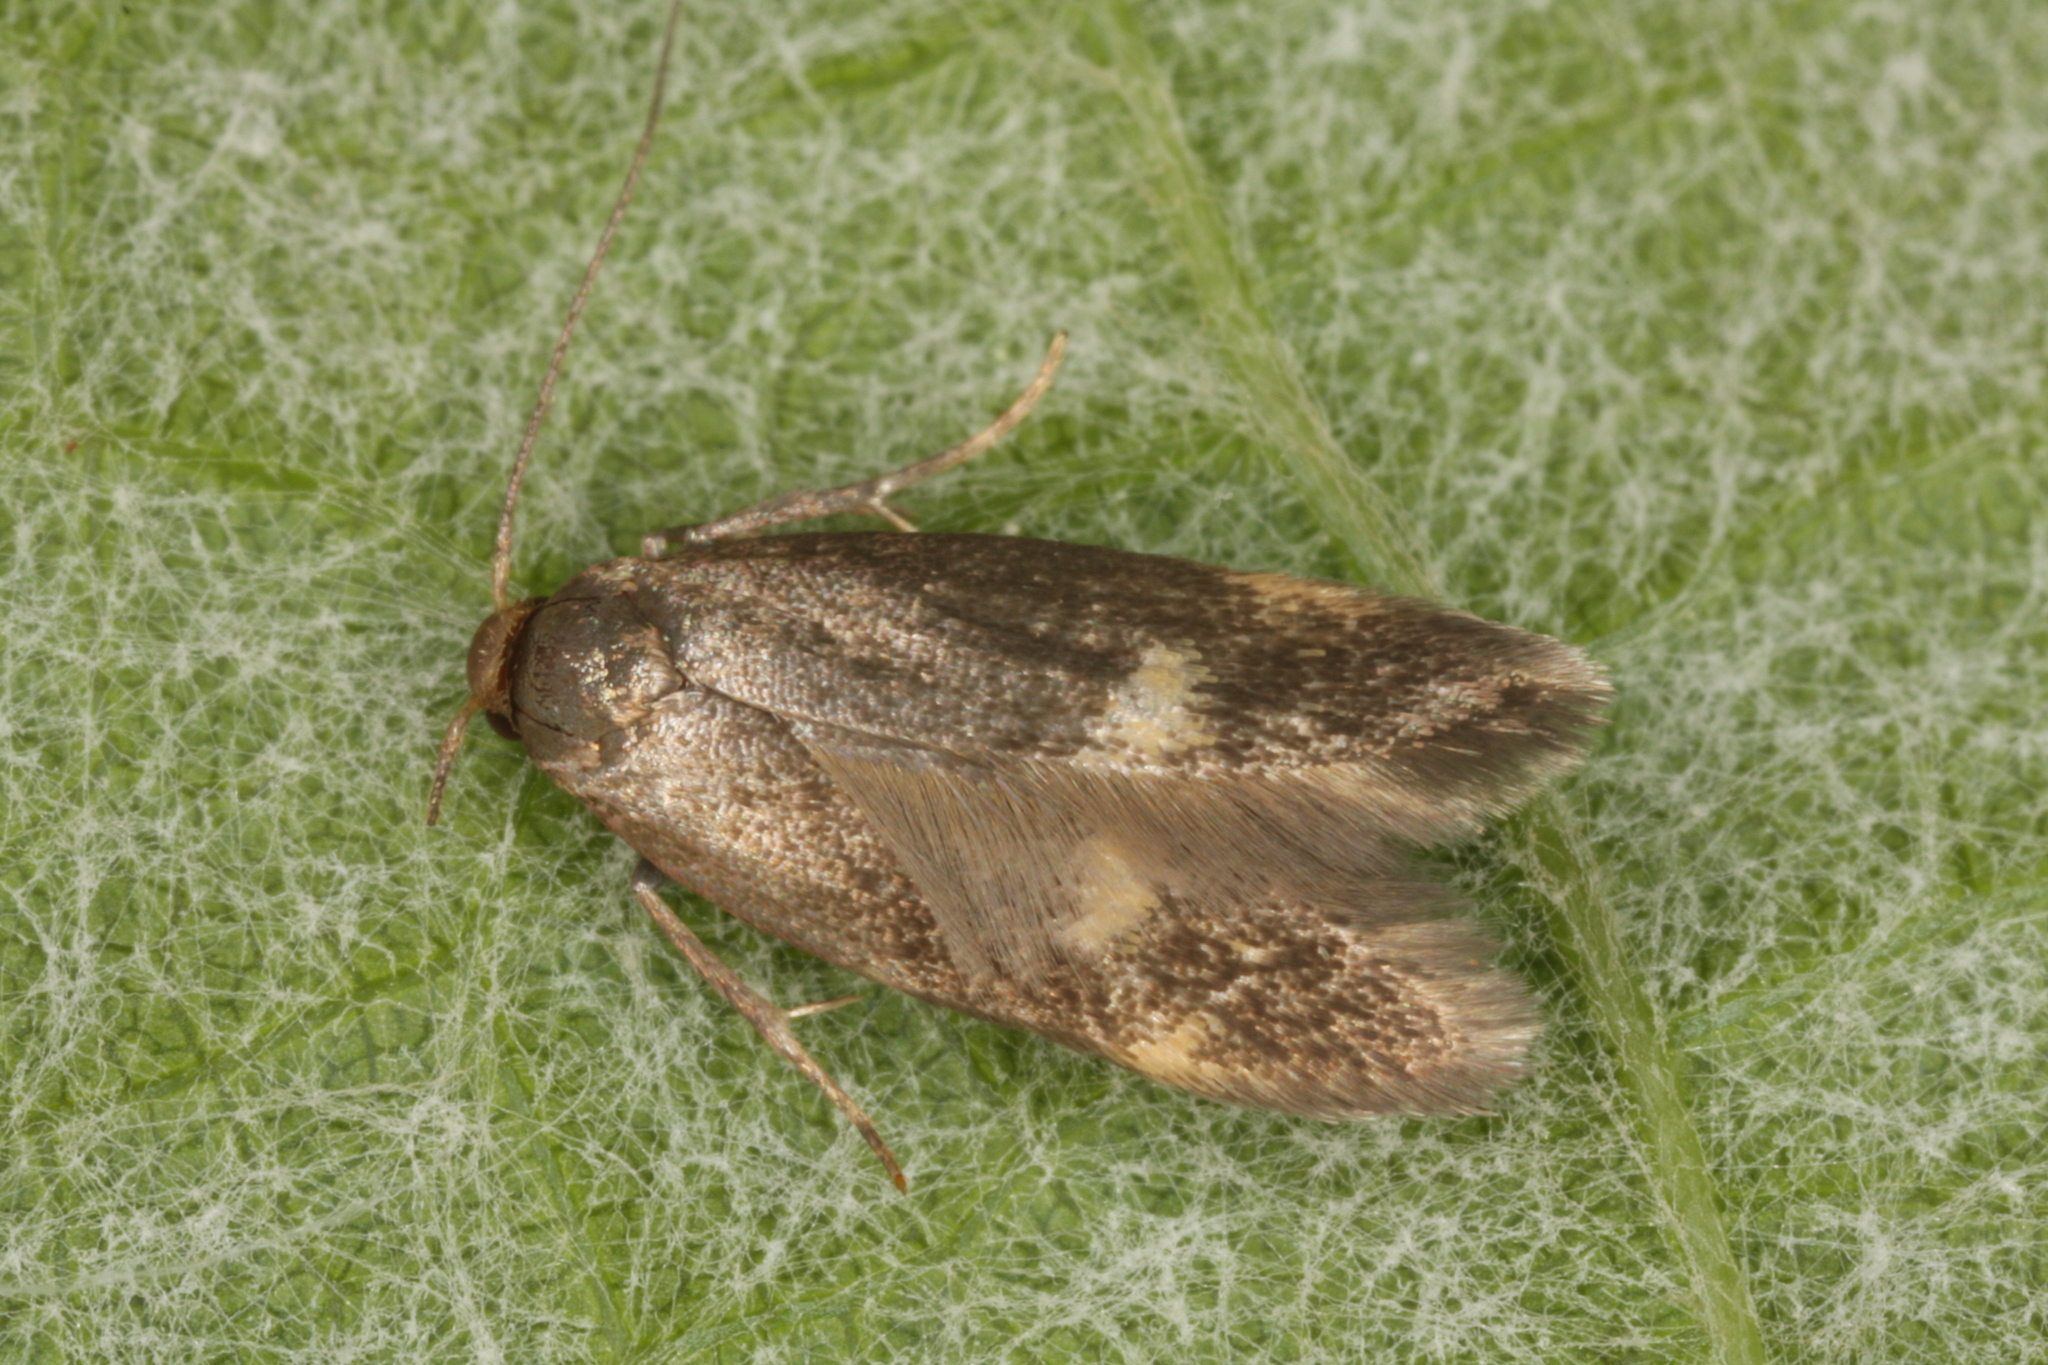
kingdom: Animalia
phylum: Arthropoda
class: Insecta
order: Lepidoptera
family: Oecophoridae
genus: Borkhausenia
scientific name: Borkhausenia minutella
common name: Thatch tubic
